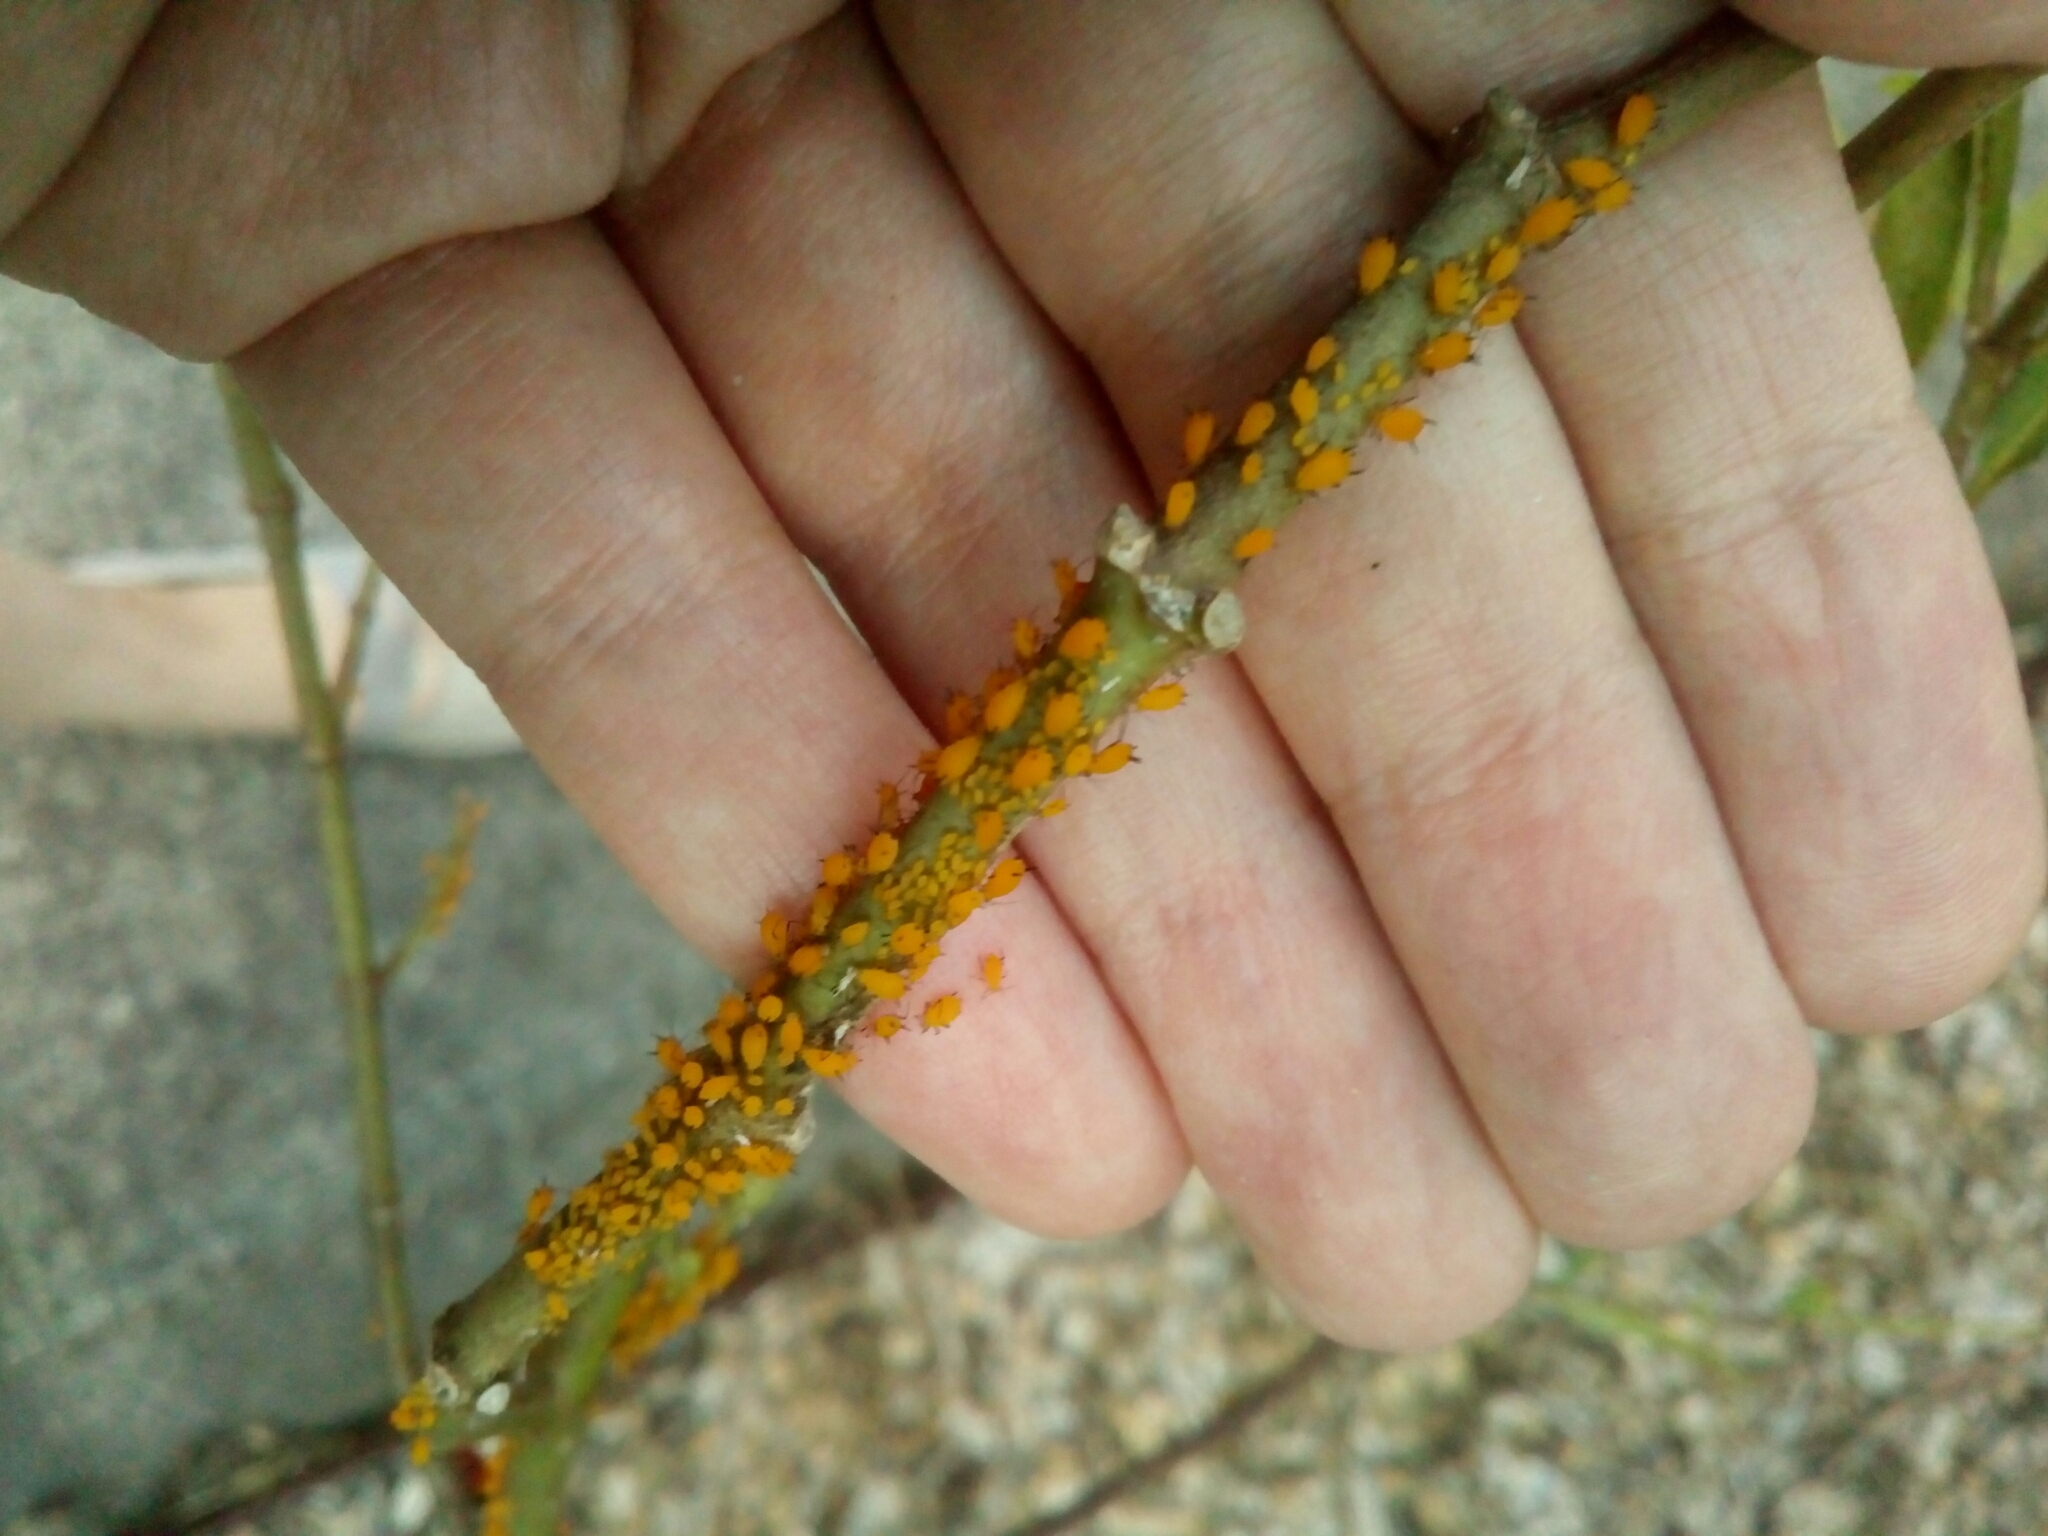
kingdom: Animalia
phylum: Arthropoda
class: Insecta
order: Hemiptera
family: Aphididae
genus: Aphis
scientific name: Aphis nerii
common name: Oleander aphid
